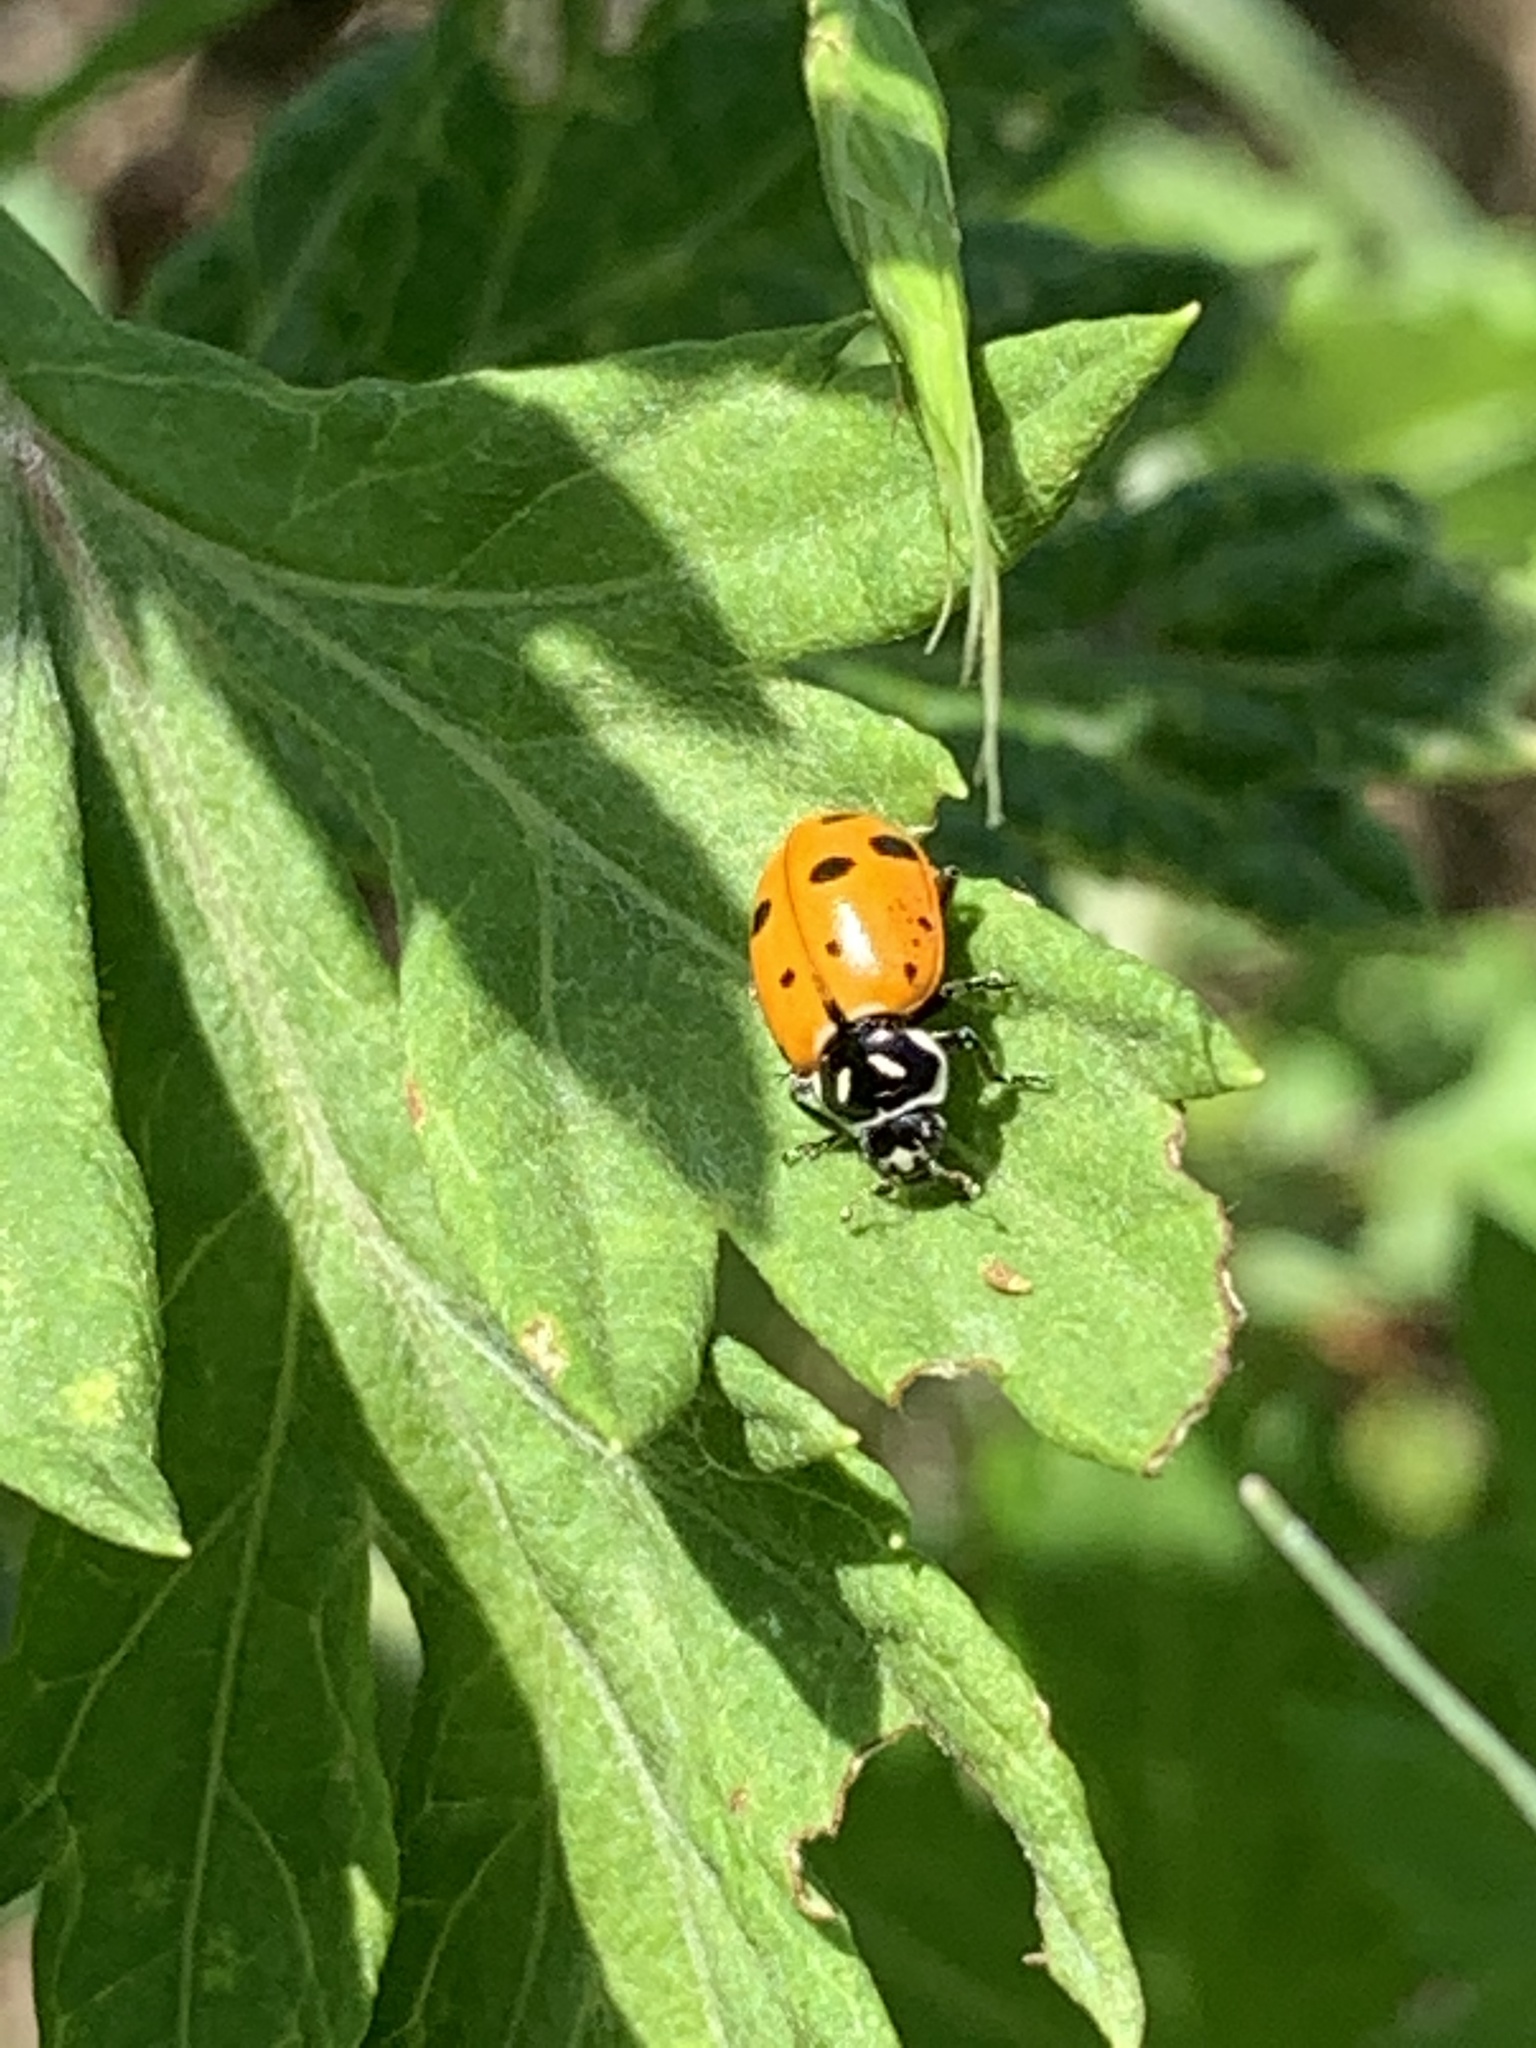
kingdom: Animalia
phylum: Arthropoda
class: Insecta
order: Coleoptera
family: Coccinellidae
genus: Hippodamia
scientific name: Hippodamia convergens
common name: Convergent lady beetle
